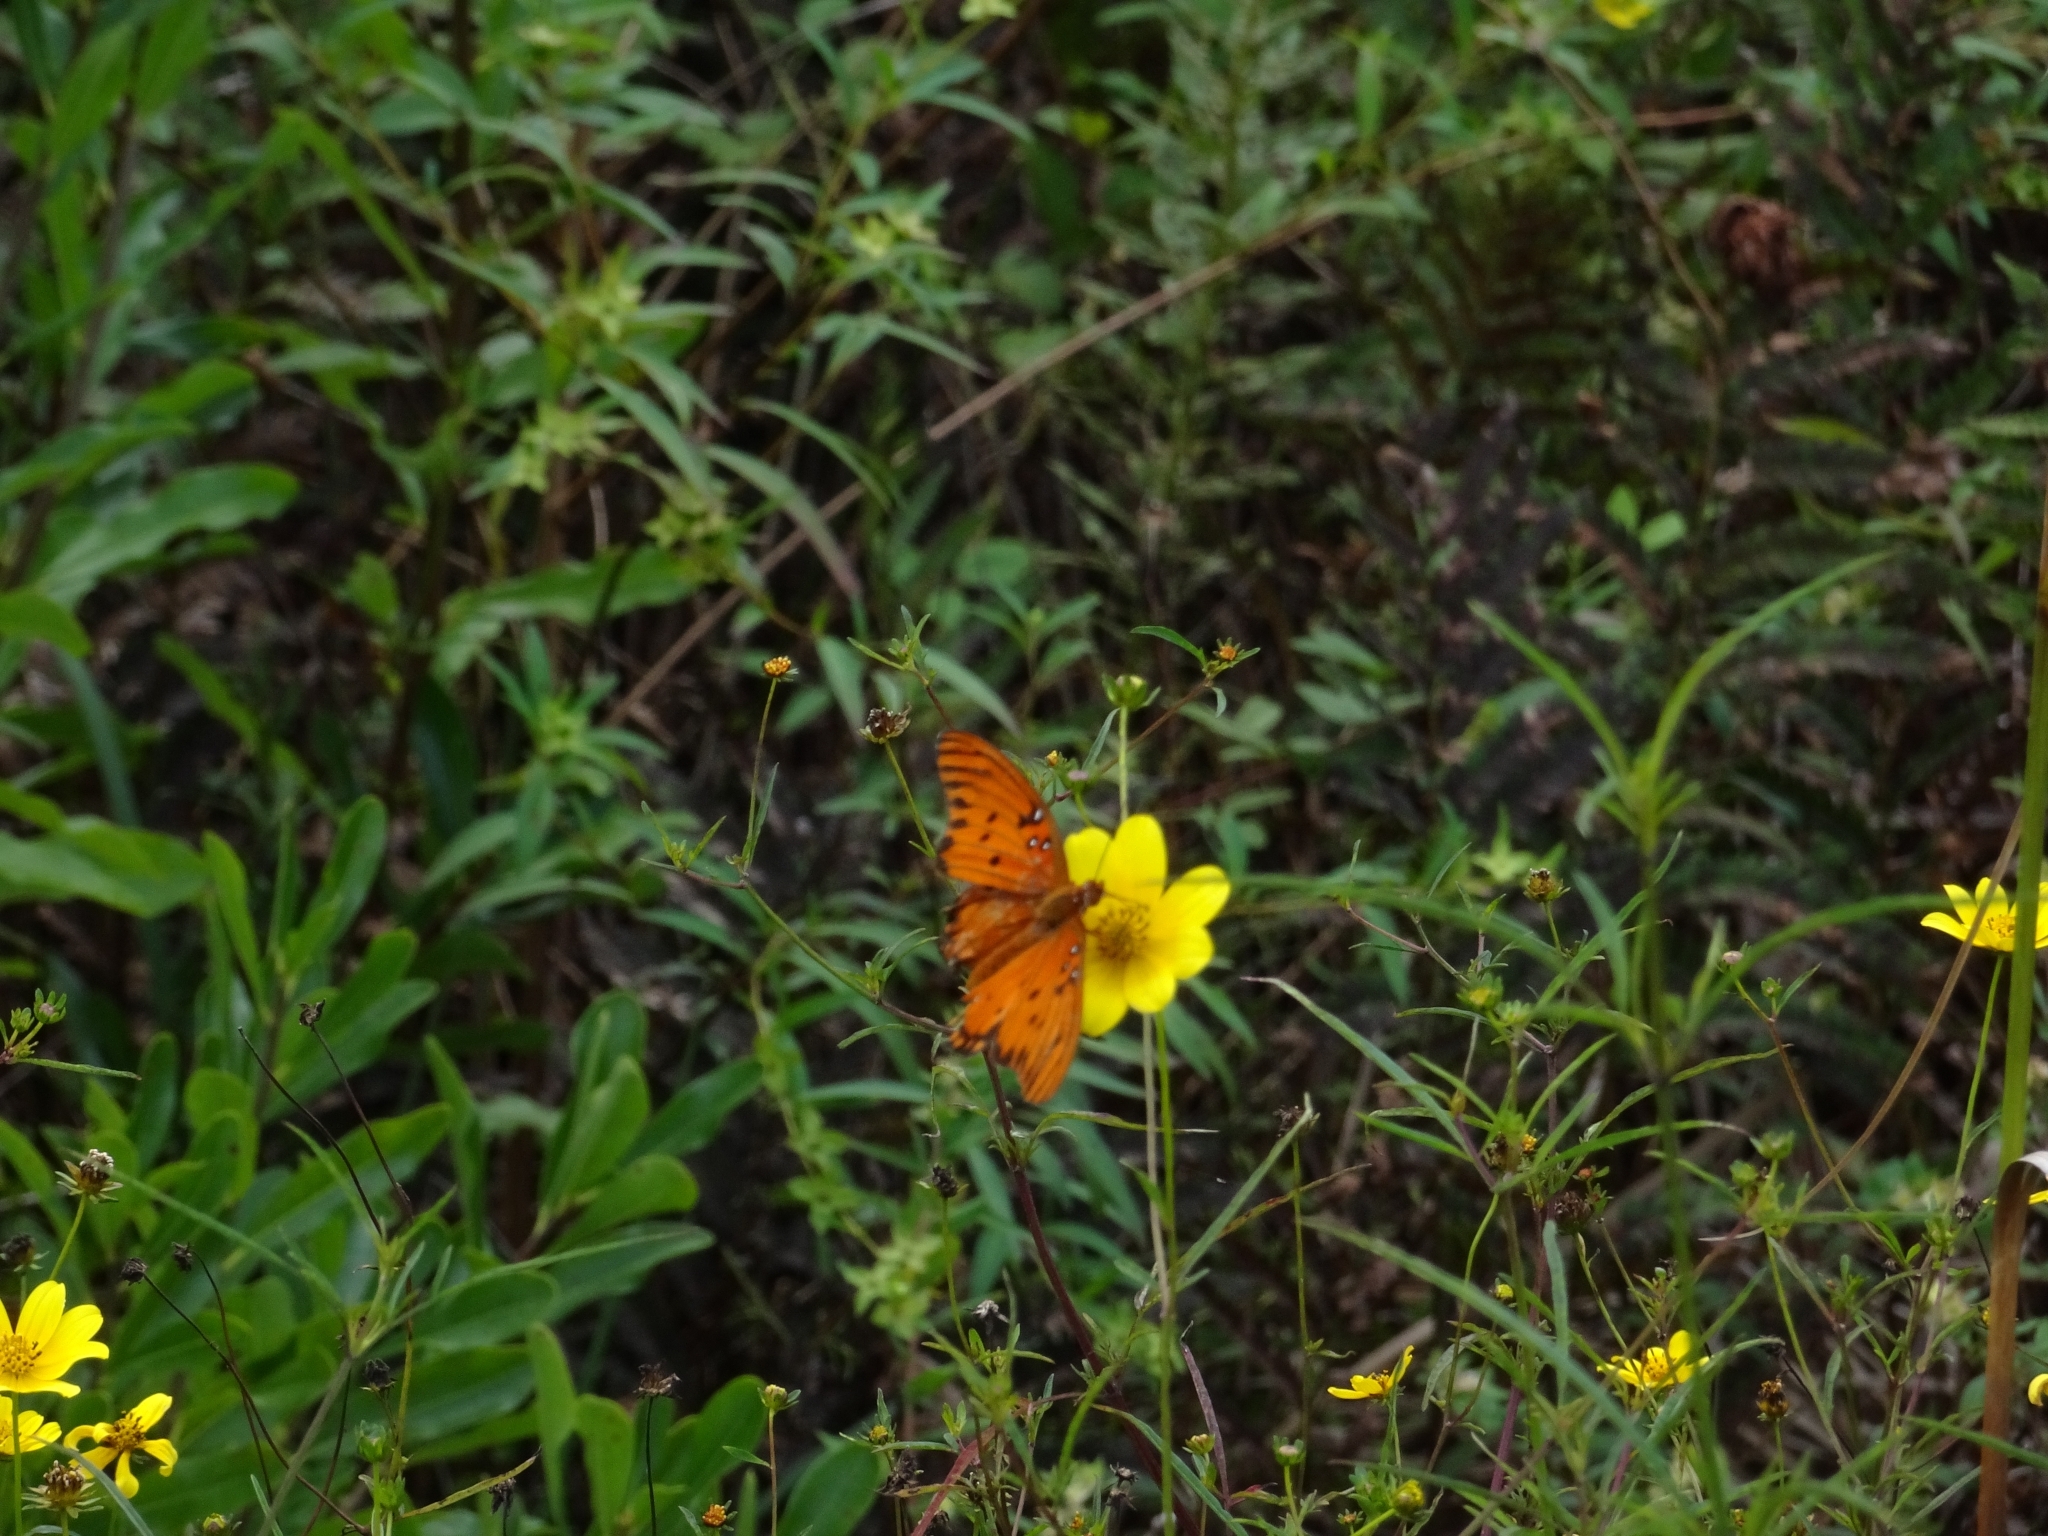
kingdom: Animalia
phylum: Arthropoda
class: Insecta
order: Lepidoptera
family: Nymphalidae
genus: Dione
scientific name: Dione vanillae
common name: Gulf fritillary
